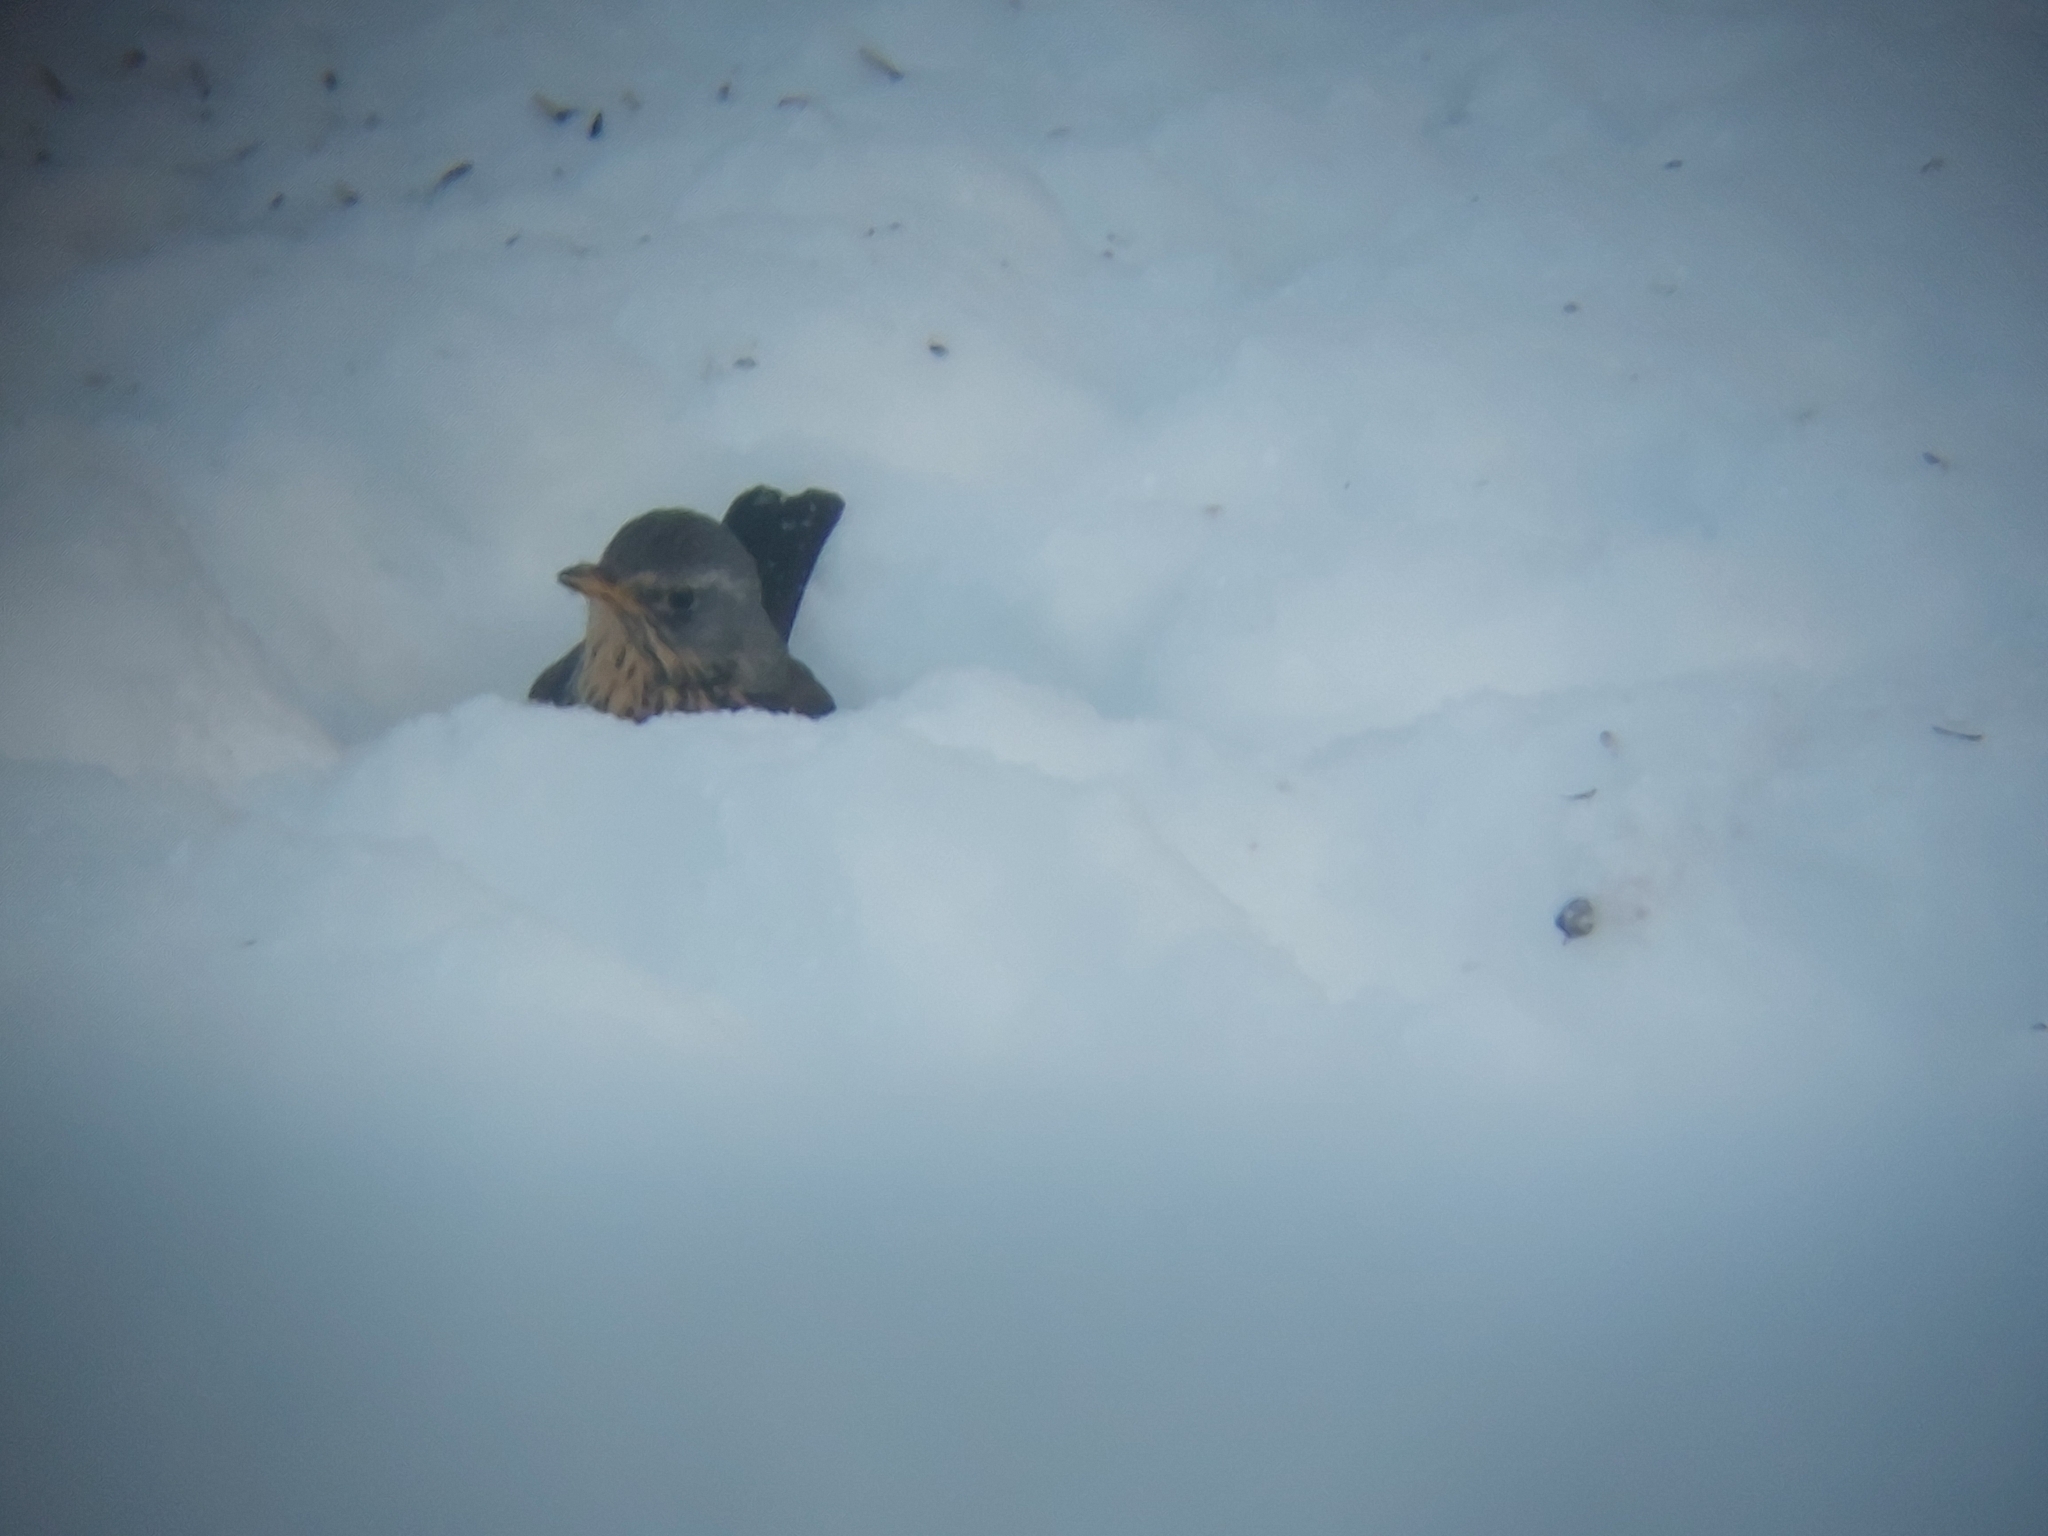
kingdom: Animalia
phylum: Chordata
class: Aves
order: Passeriformes
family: Turdidae
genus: Turdus
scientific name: Turdus pilaris
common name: Fieldfare
